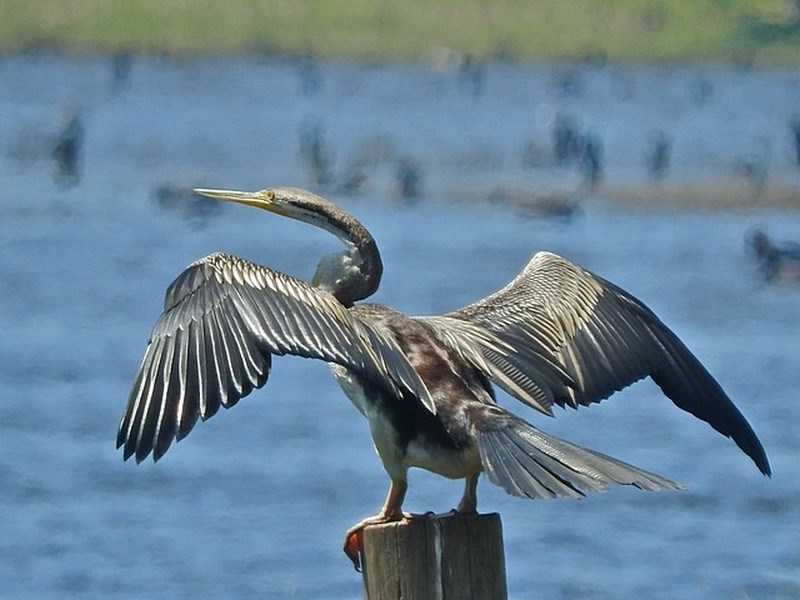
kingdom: Animalia
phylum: Chordata
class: Aves
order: Suliformes
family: Anhingidae
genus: Anhinga
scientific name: Anhinga novaehollandiae
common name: Australasian darter
